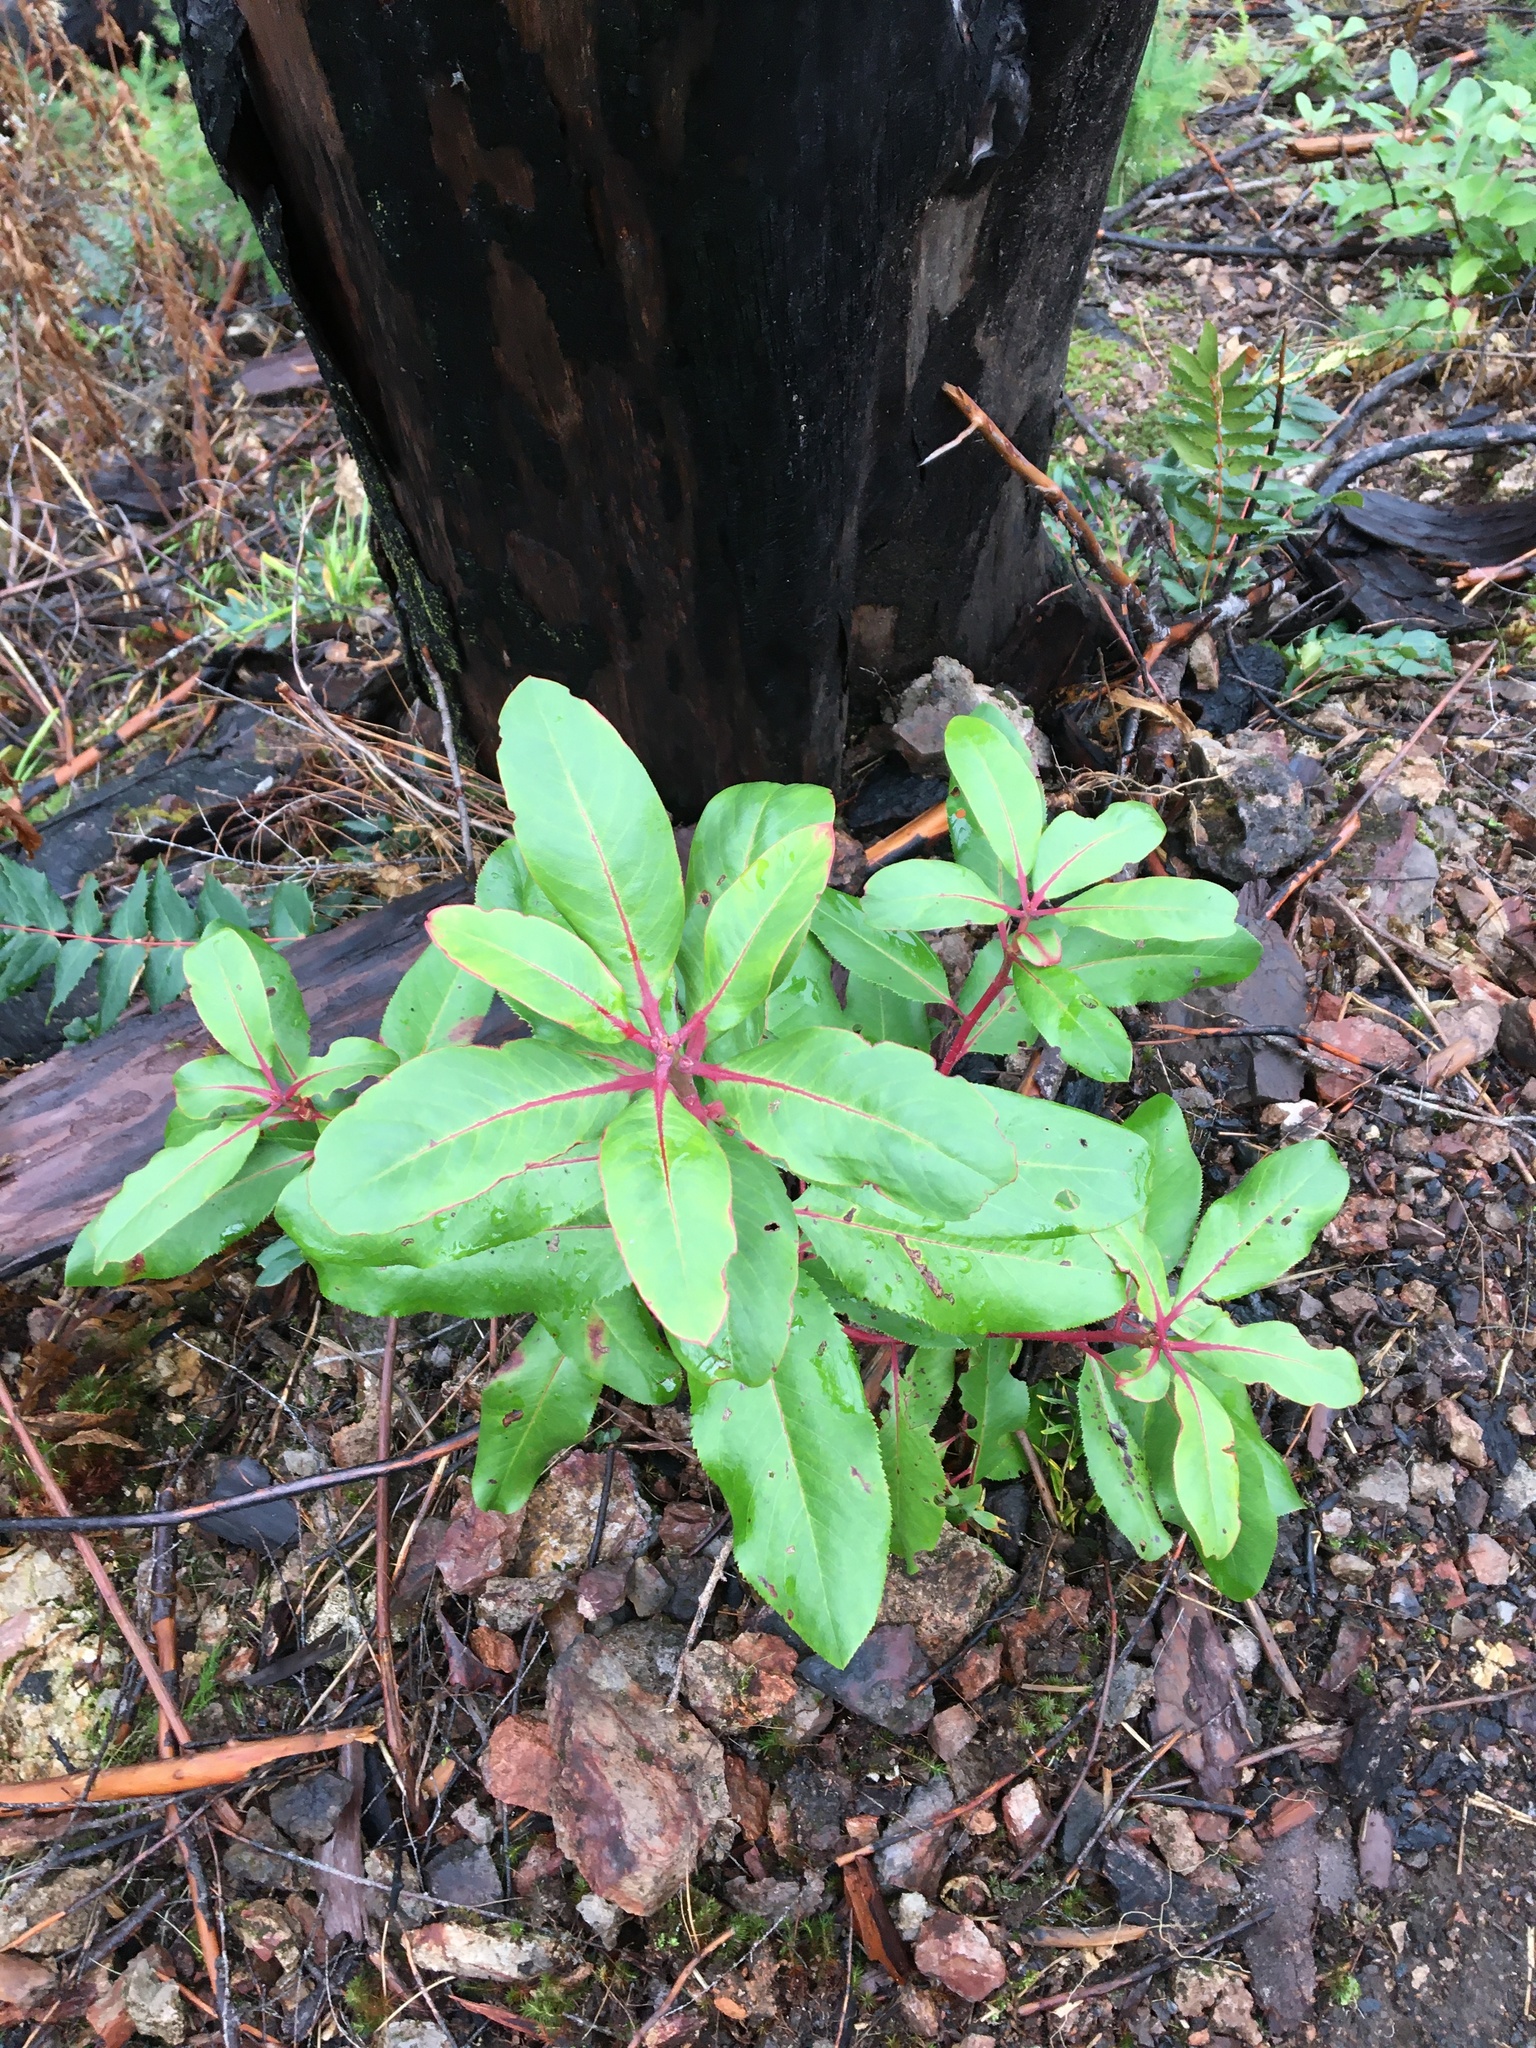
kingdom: Plantae
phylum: Tracheophyta
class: Magnoliopsida
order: Ericales
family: Ericaceae
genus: Arbutus
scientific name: Arbutus menziesii
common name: Pacific madrone
